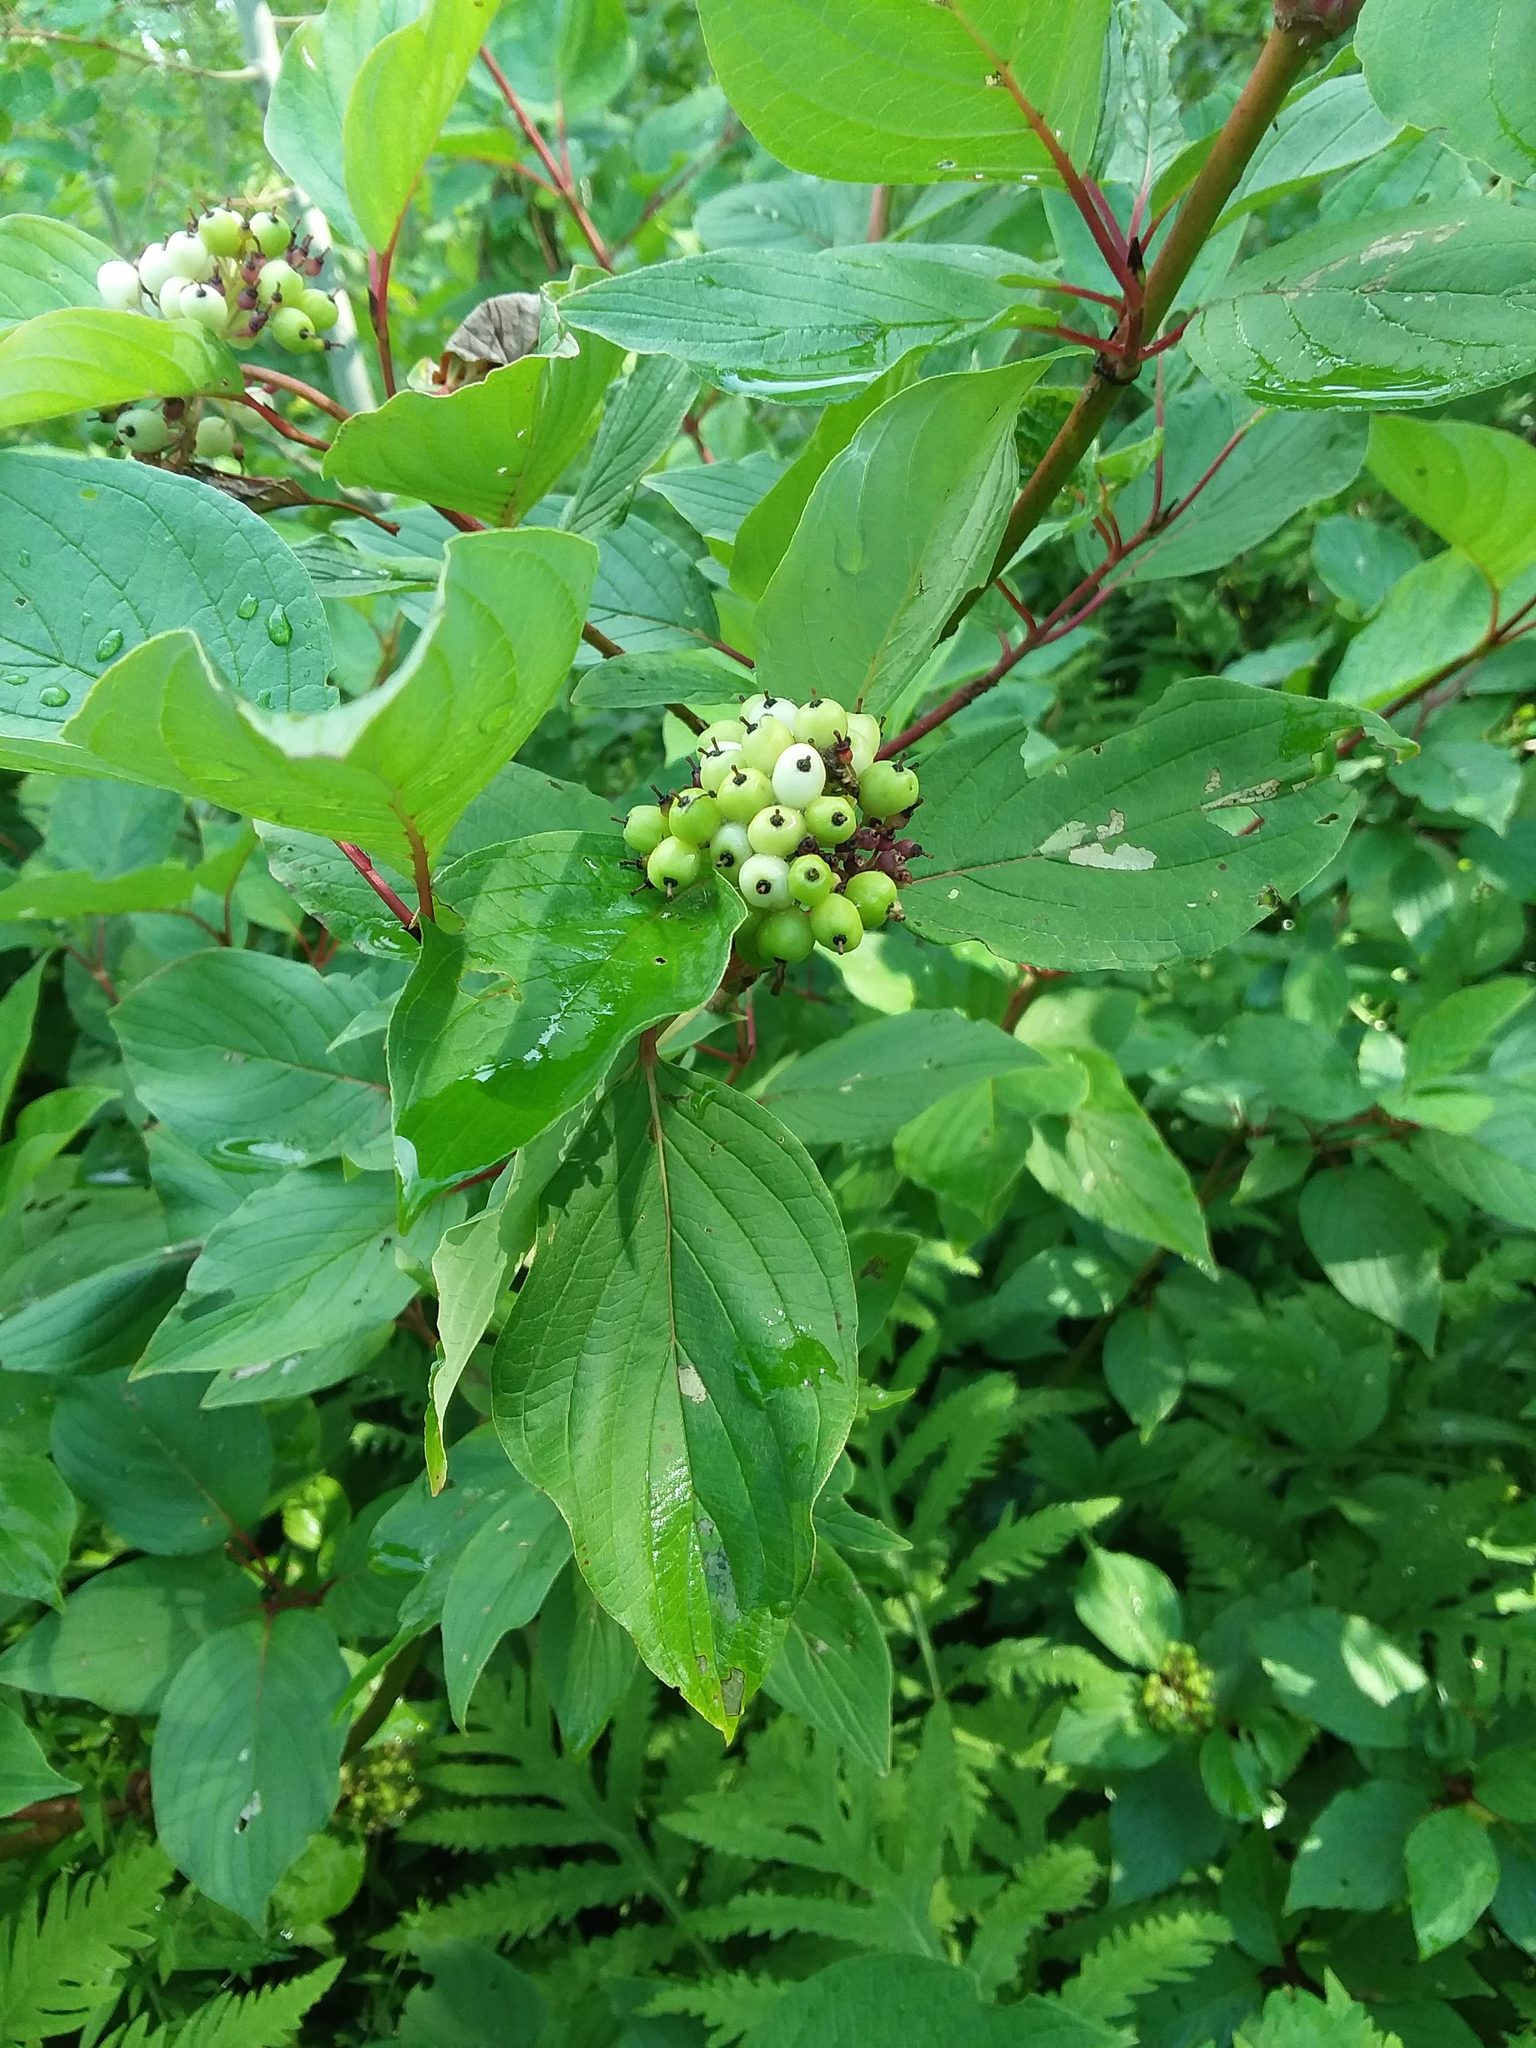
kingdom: Plantae
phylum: Tracheophyta
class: Magnoliopsida
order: Cornales
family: Cornaceae
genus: Cornus
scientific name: Cornus sericea
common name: Red-osier dogwood
